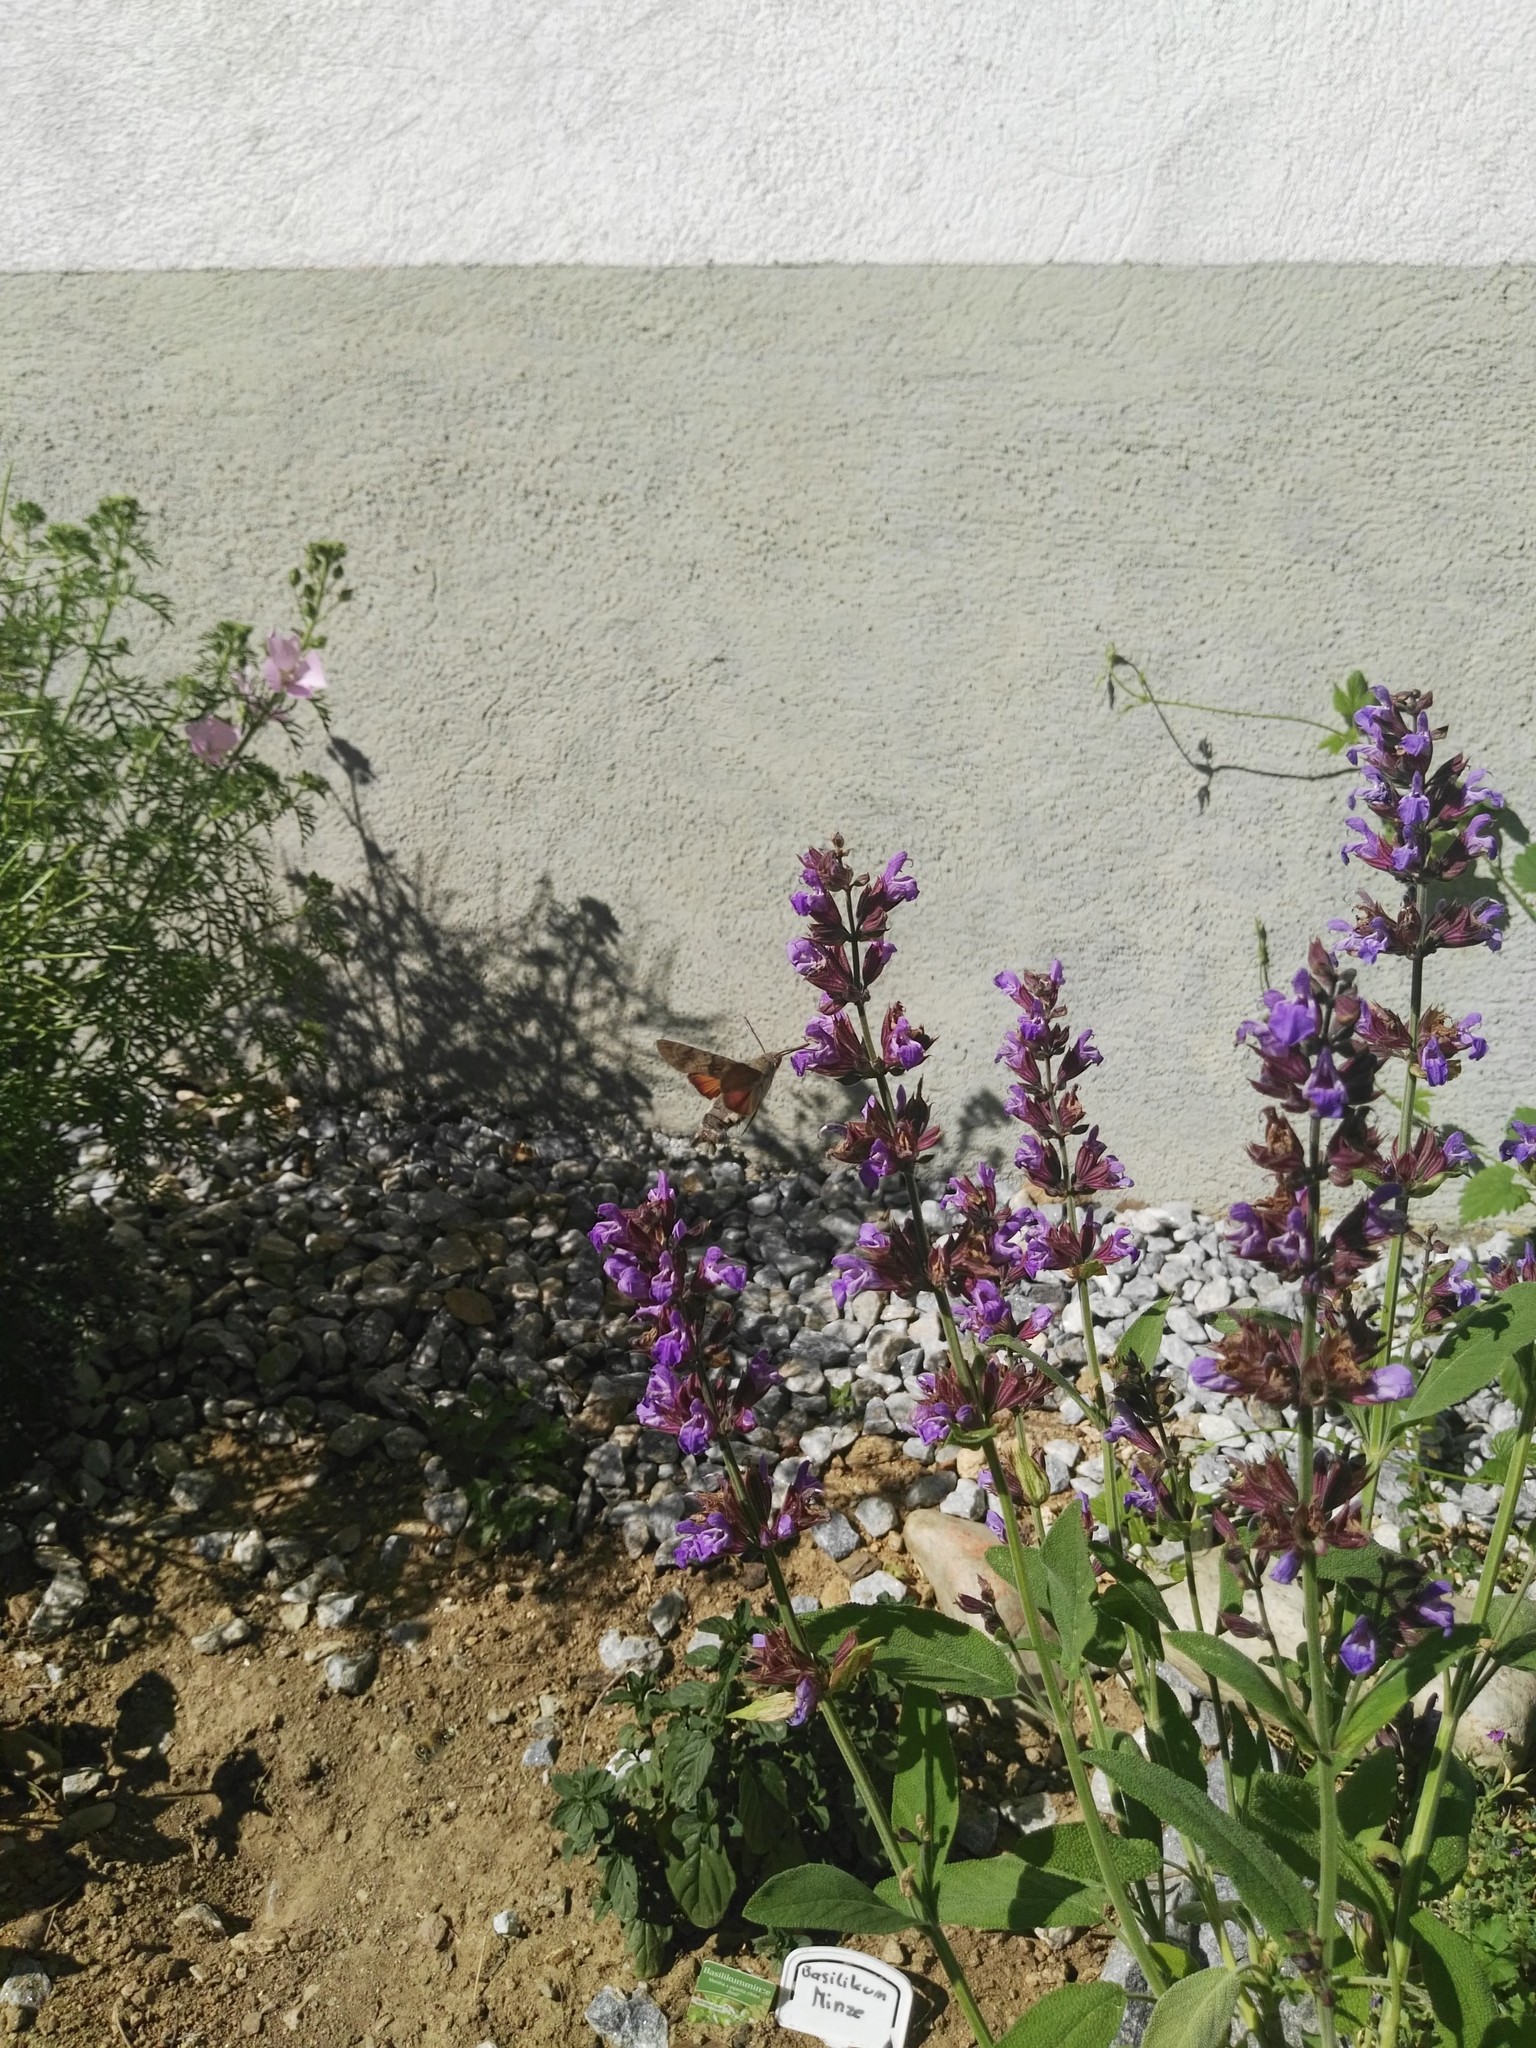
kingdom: Animalia
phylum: Arthropoda
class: Insecta
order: Lepidoptera
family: Sphingidae
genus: Macroglossum
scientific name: Macroglossum stellatarum
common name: Humming-bird hawk-moth
